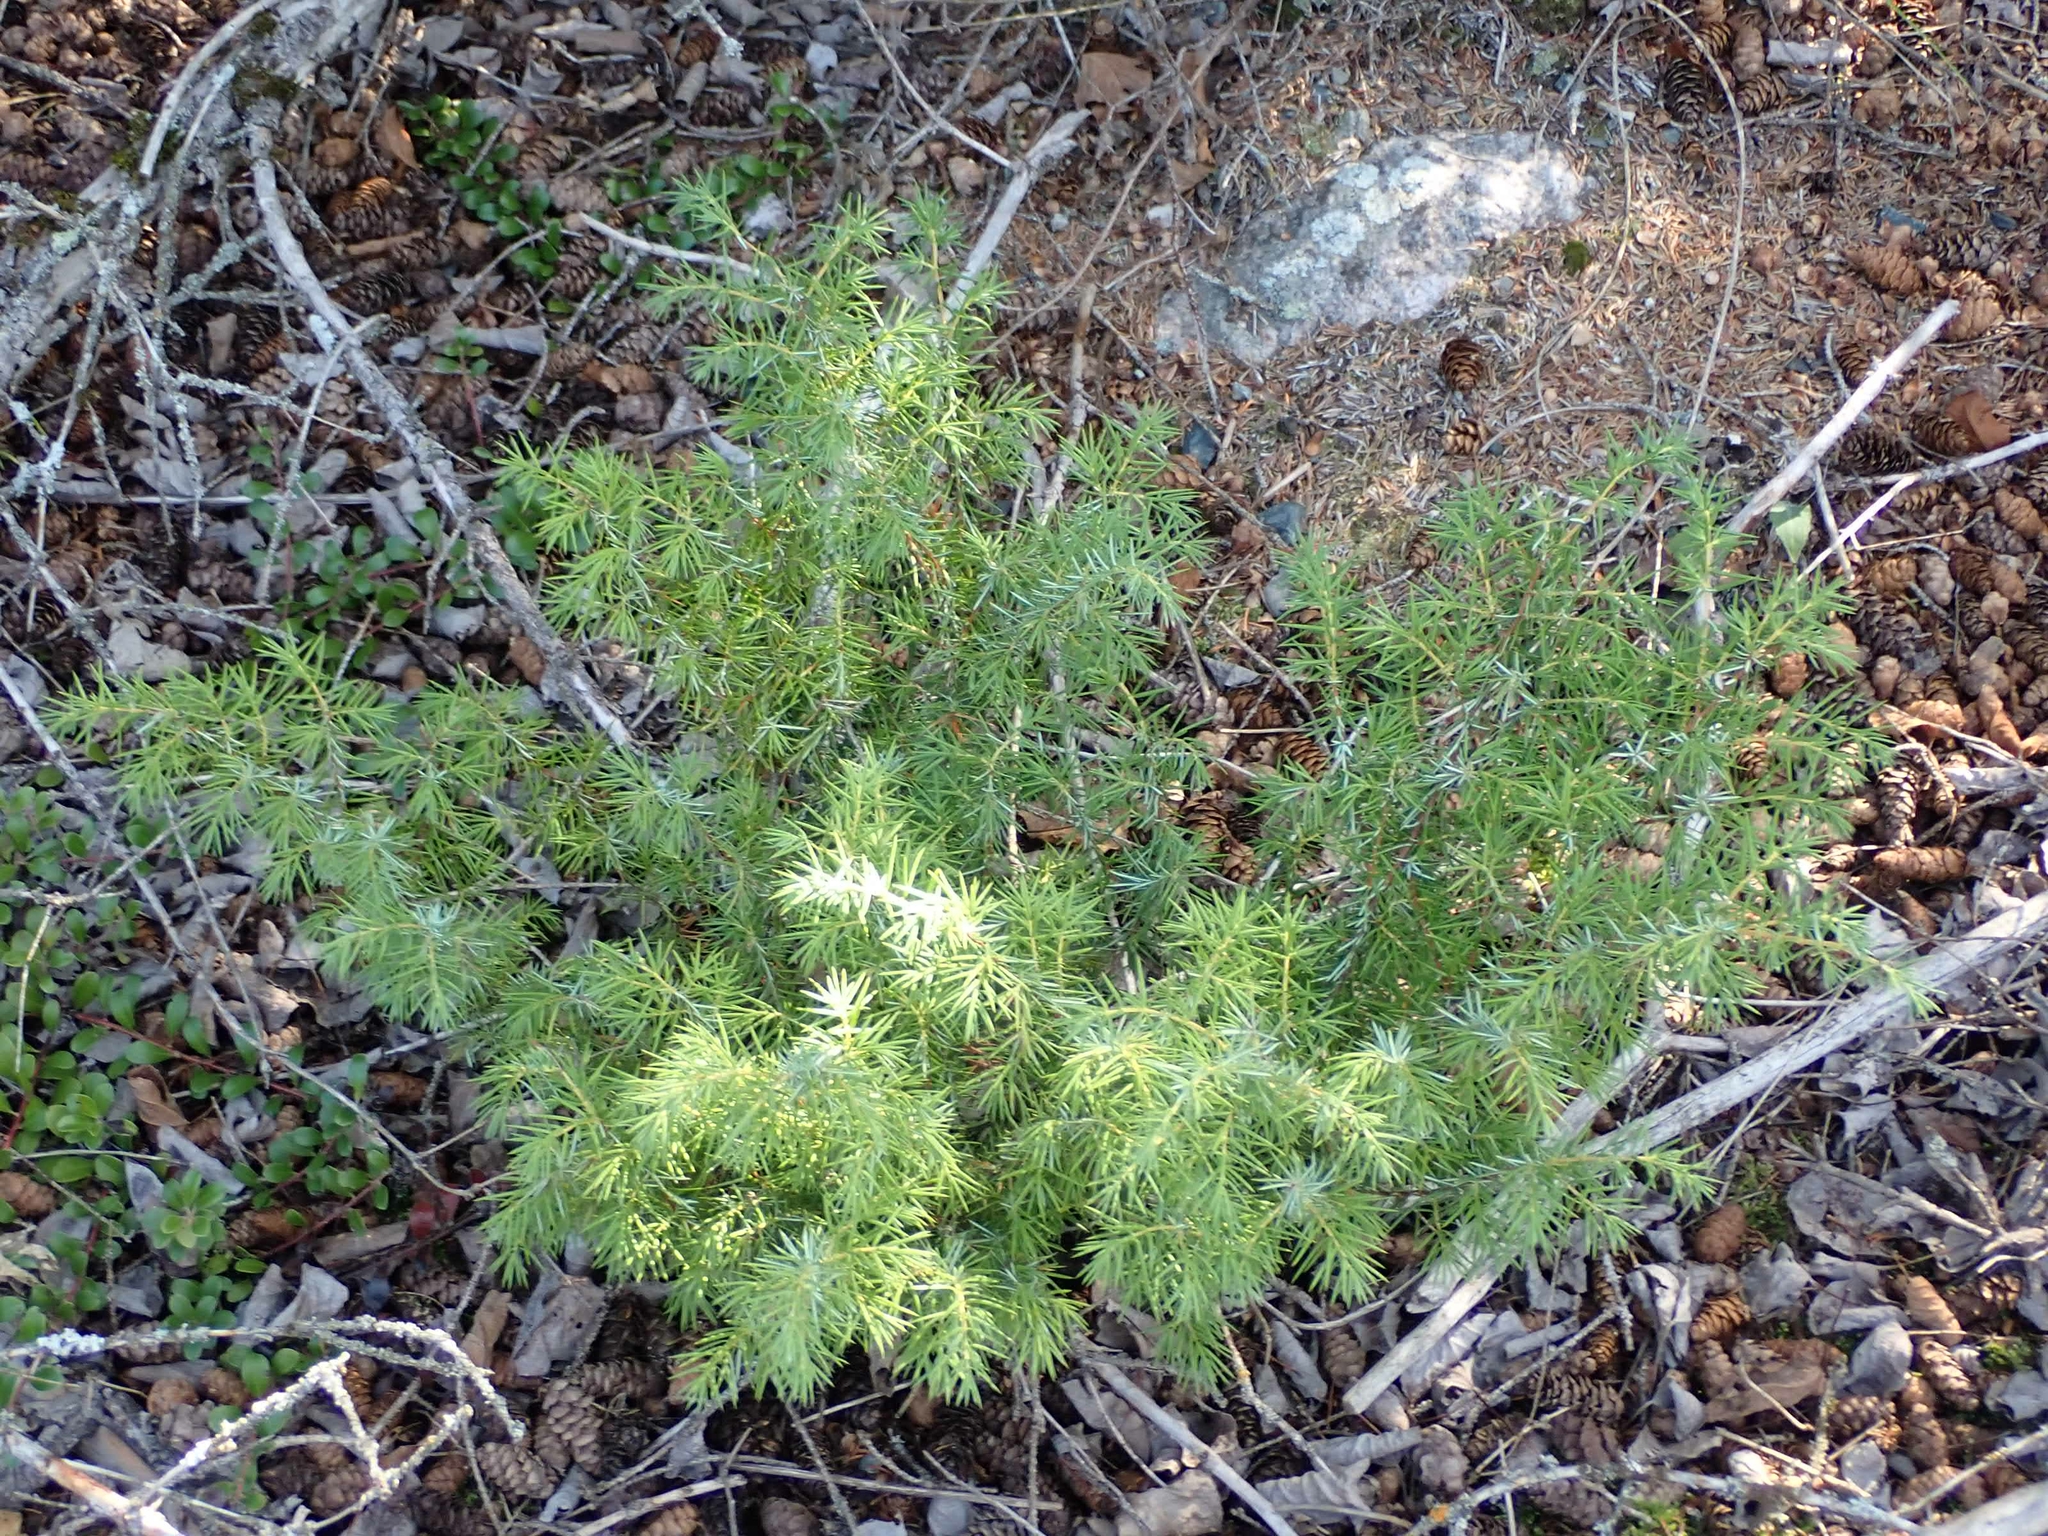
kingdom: Plantae
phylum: Tracheophyta
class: Pinopsida
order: Pinales
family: Cupressaceae
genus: Juniperus
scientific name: Juniperus communis
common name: Common juniper
